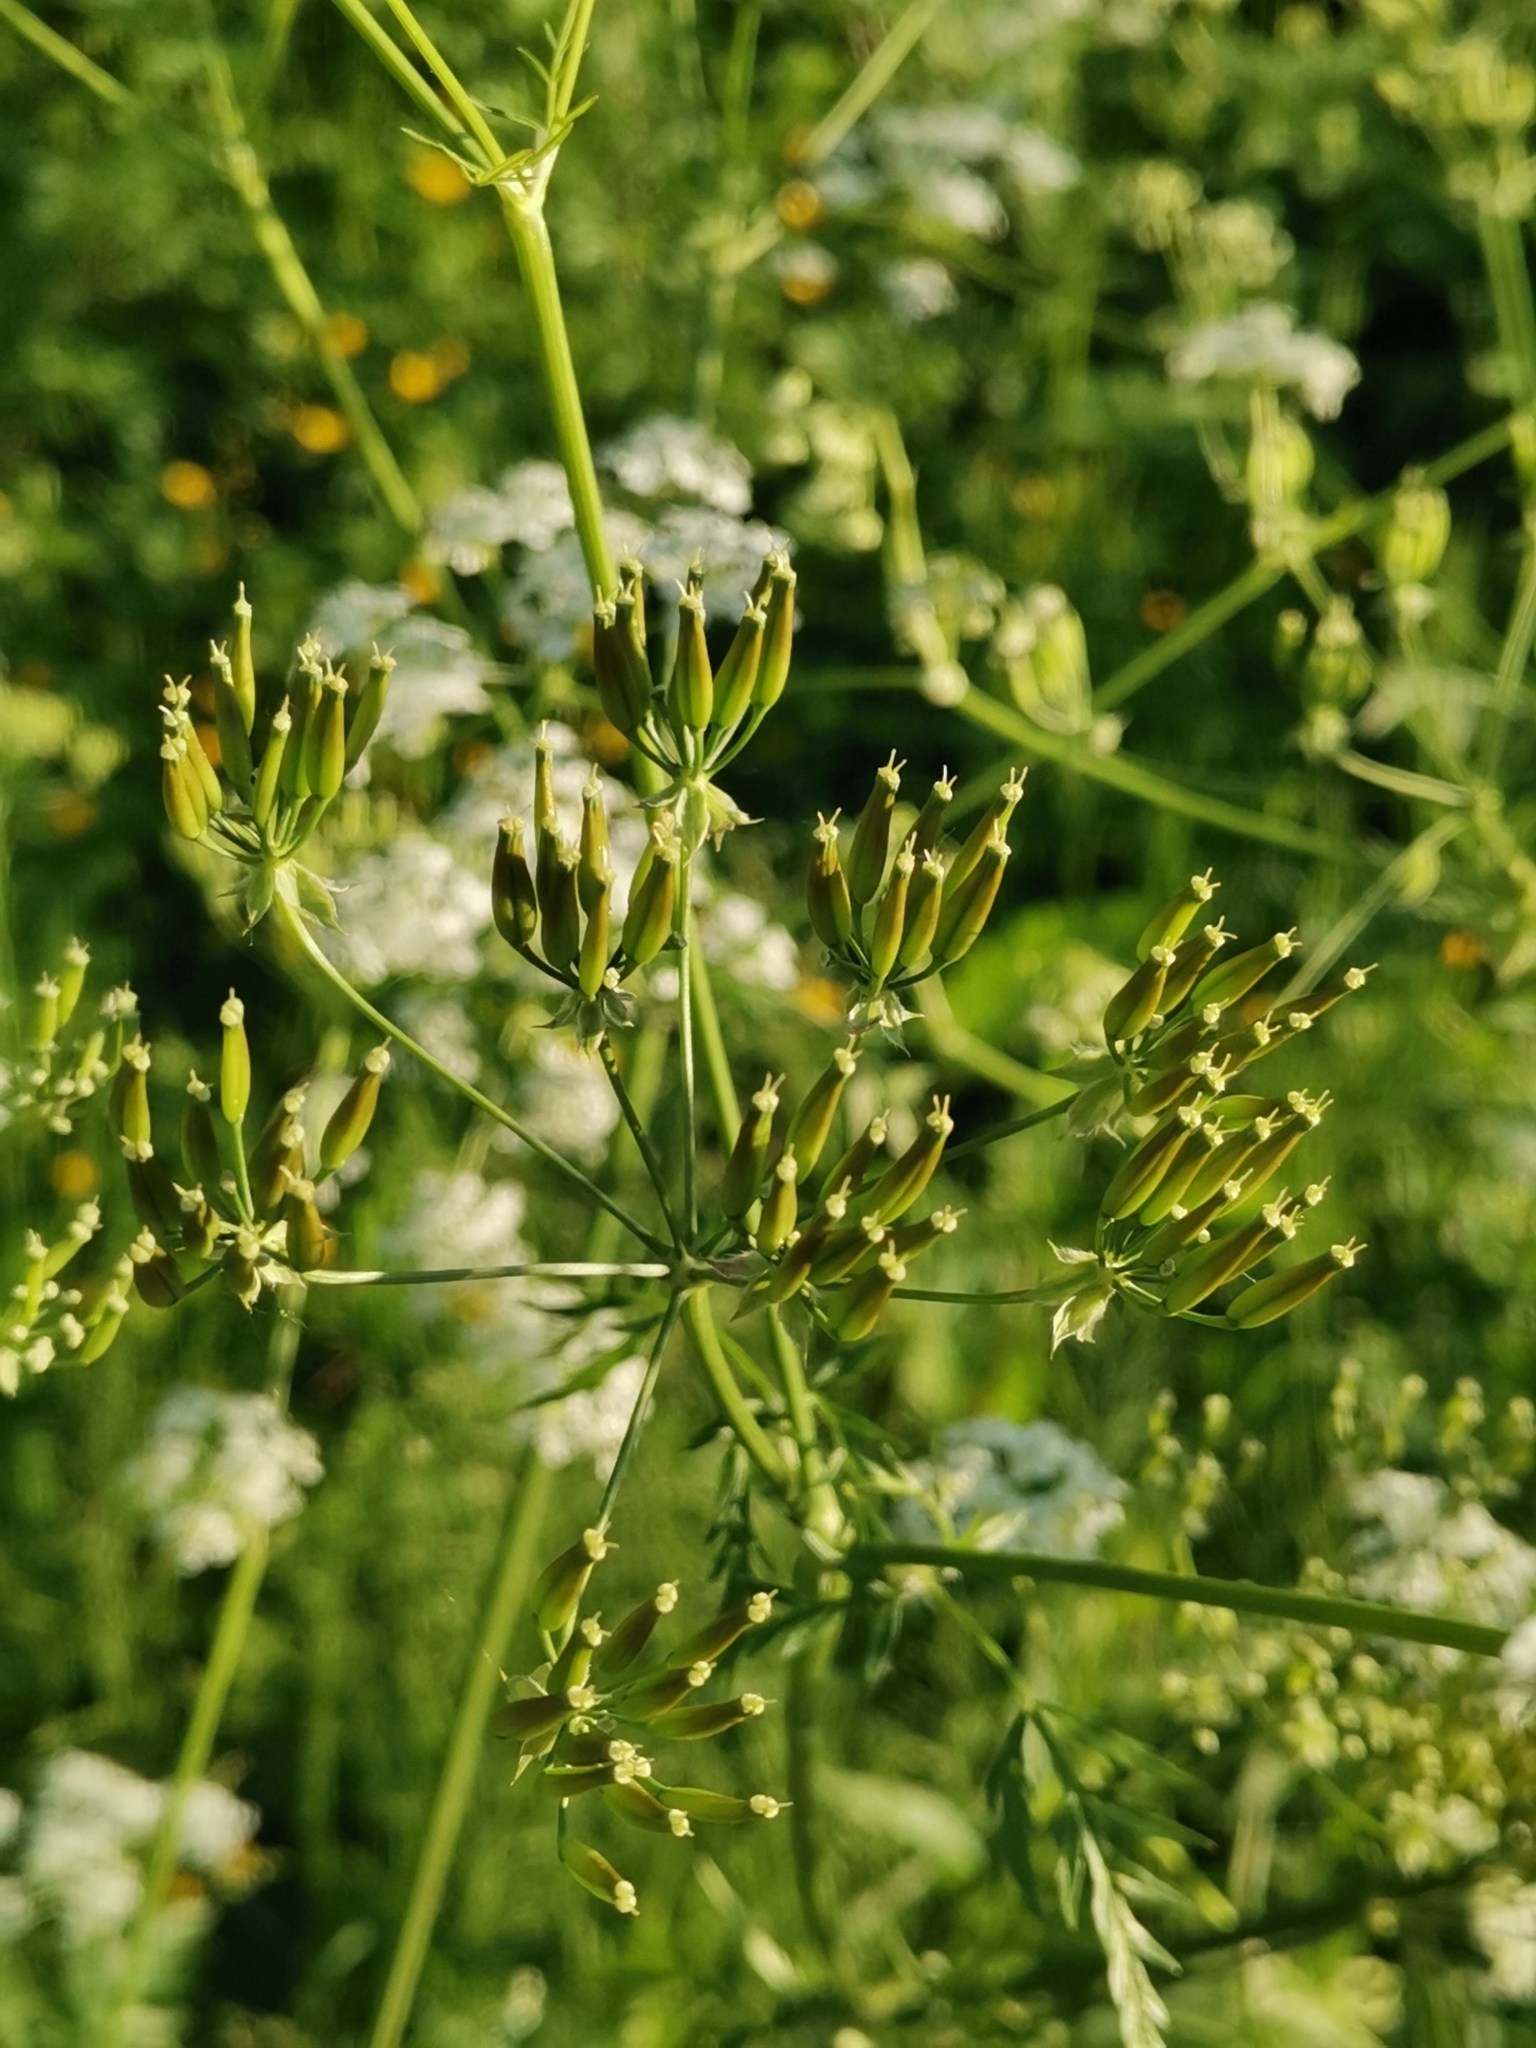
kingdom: Plantae
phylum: Tracheophyta
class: Magnoliopsida
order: Apiales
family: Apiaceae
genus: Anthriscus
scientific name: Anthriscus sylvestris
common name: Cow parsley
